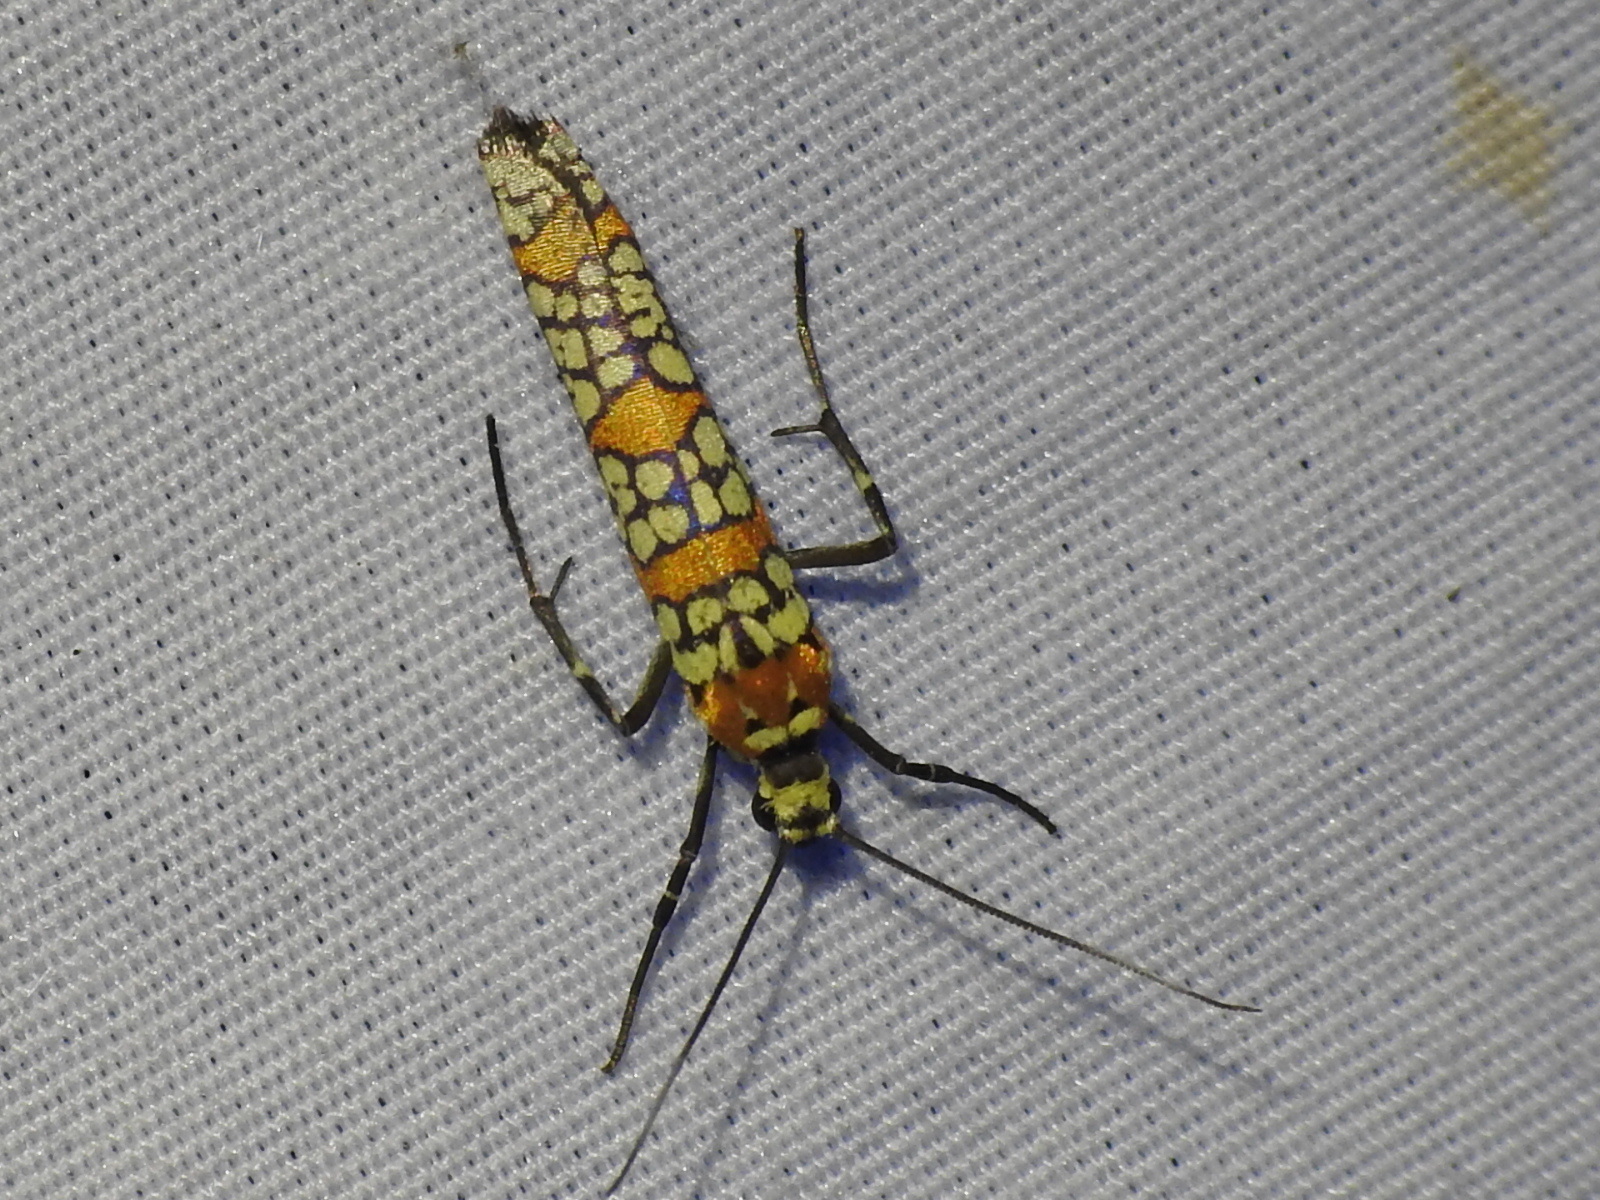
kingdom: Animalia
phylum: Arthropoda
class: Insecta
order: Lepidoptera
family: Attevidae
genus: Atteva
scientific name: Atteva punctella
